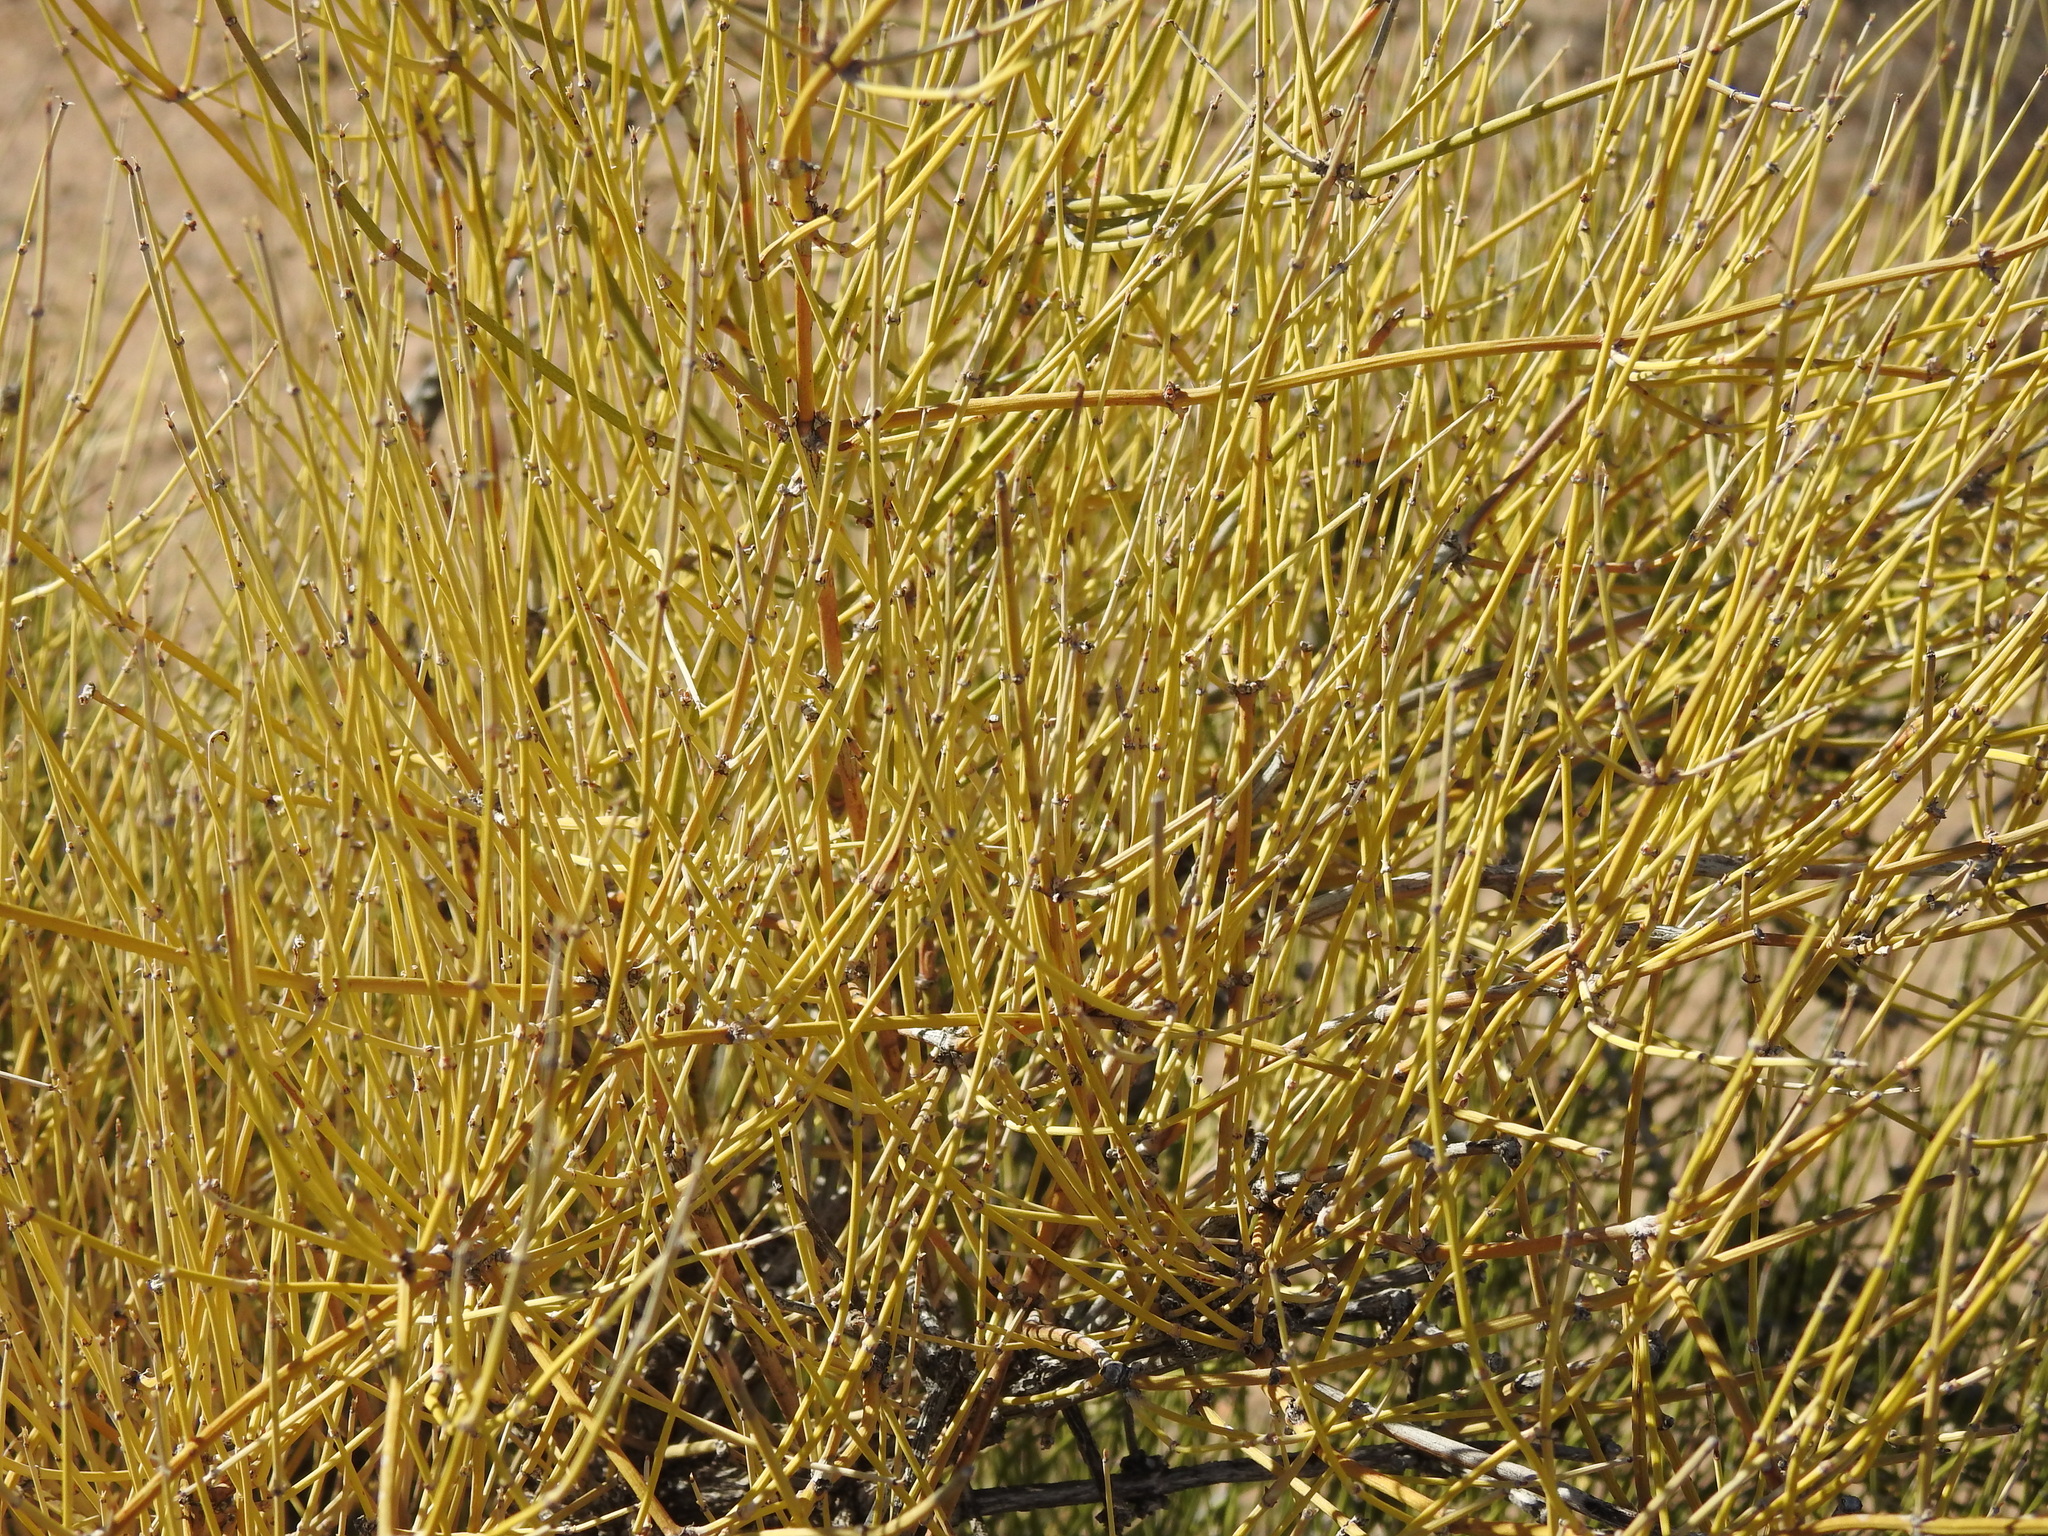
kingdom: Plantae
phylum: Tracheophyta
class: Gnetopsida
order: Ephedrales
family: Ephedraceae
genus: Ephedra
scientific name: Ephedra aspera
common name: Boundary ephedra
